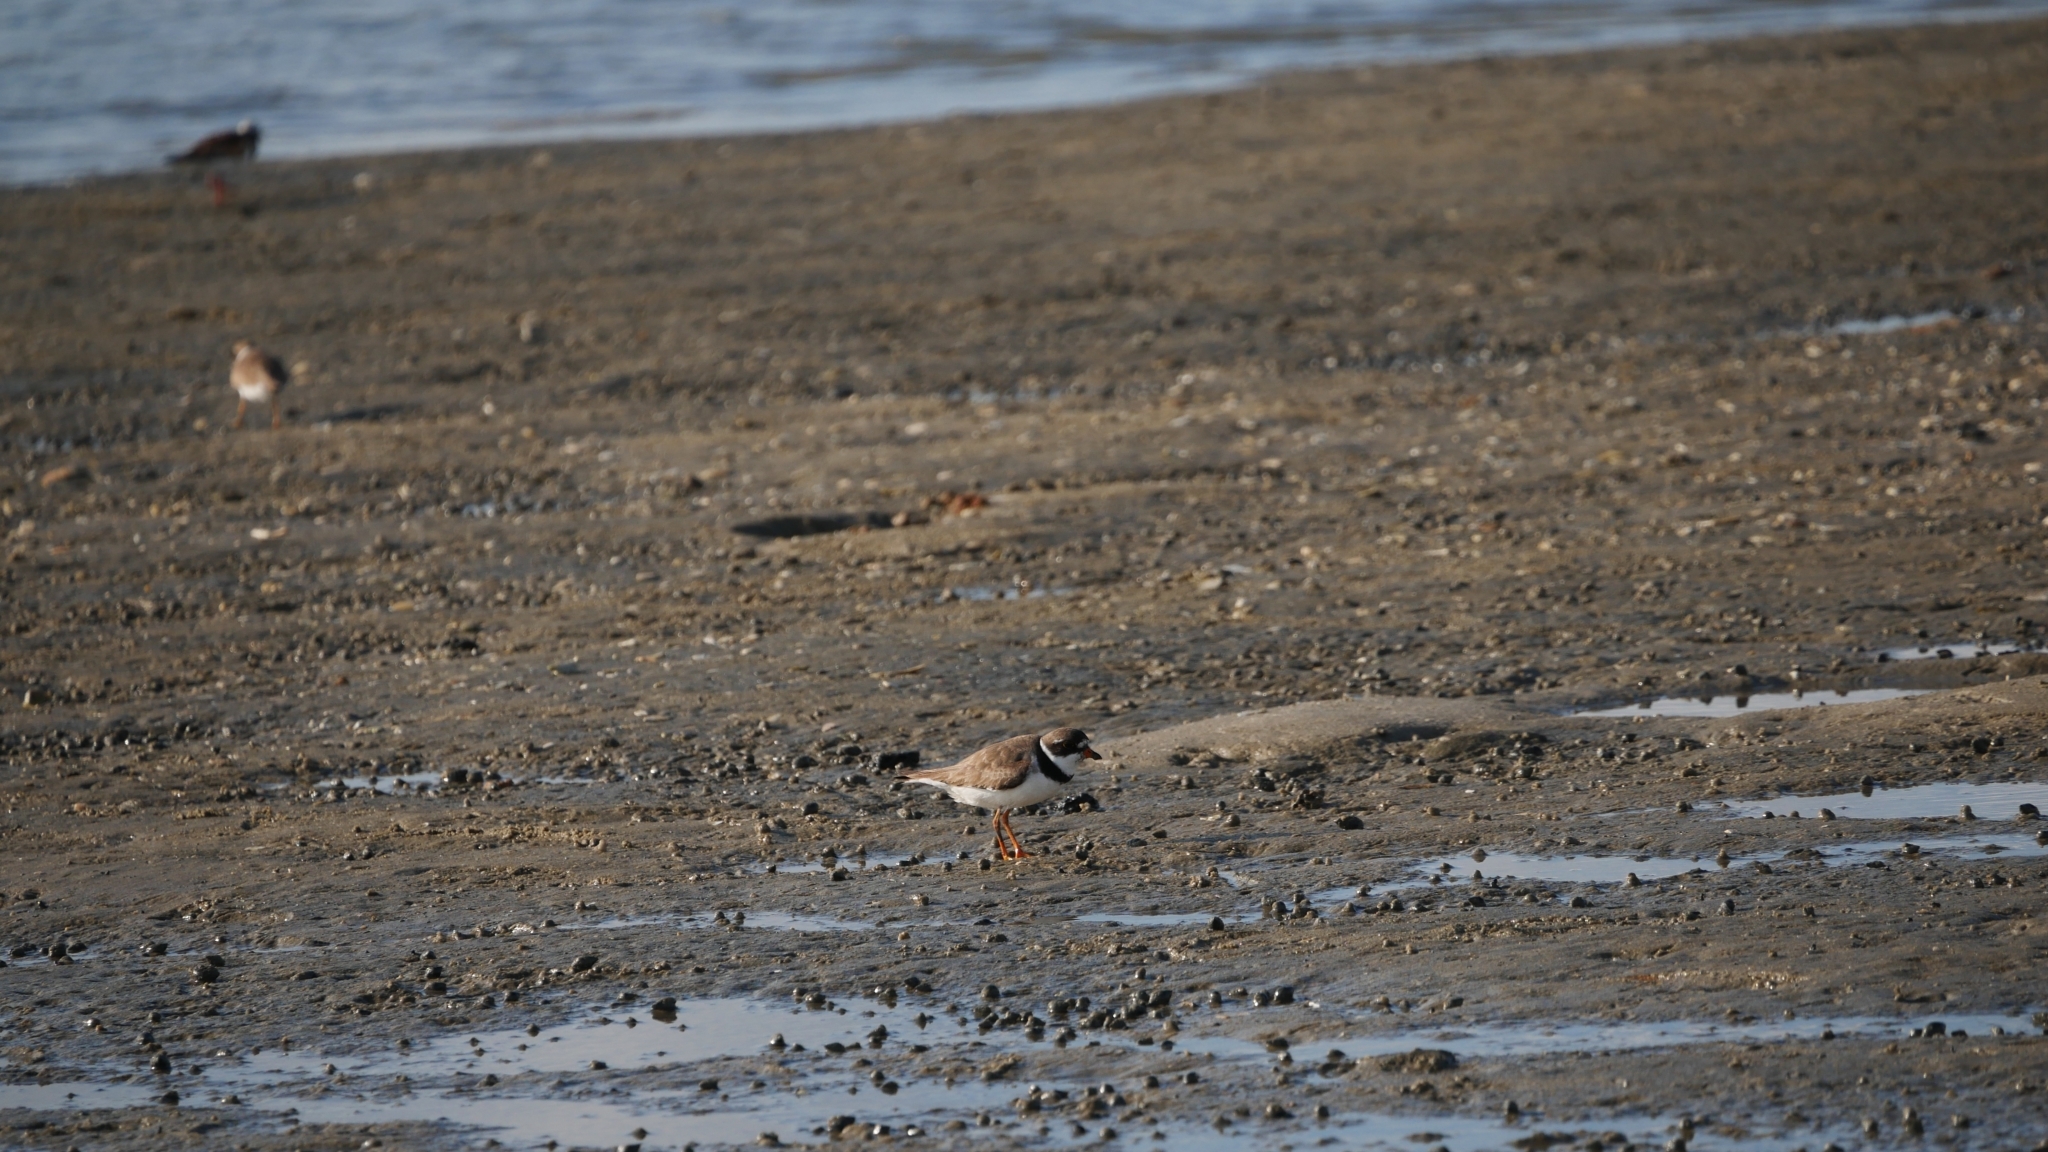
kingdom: Animalia
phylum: Chordata
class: Aves
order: Charadriiformes
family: Charadriidae
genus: Charadrius
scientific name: Charadrius semipalmatus
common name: Semipalmated plover
